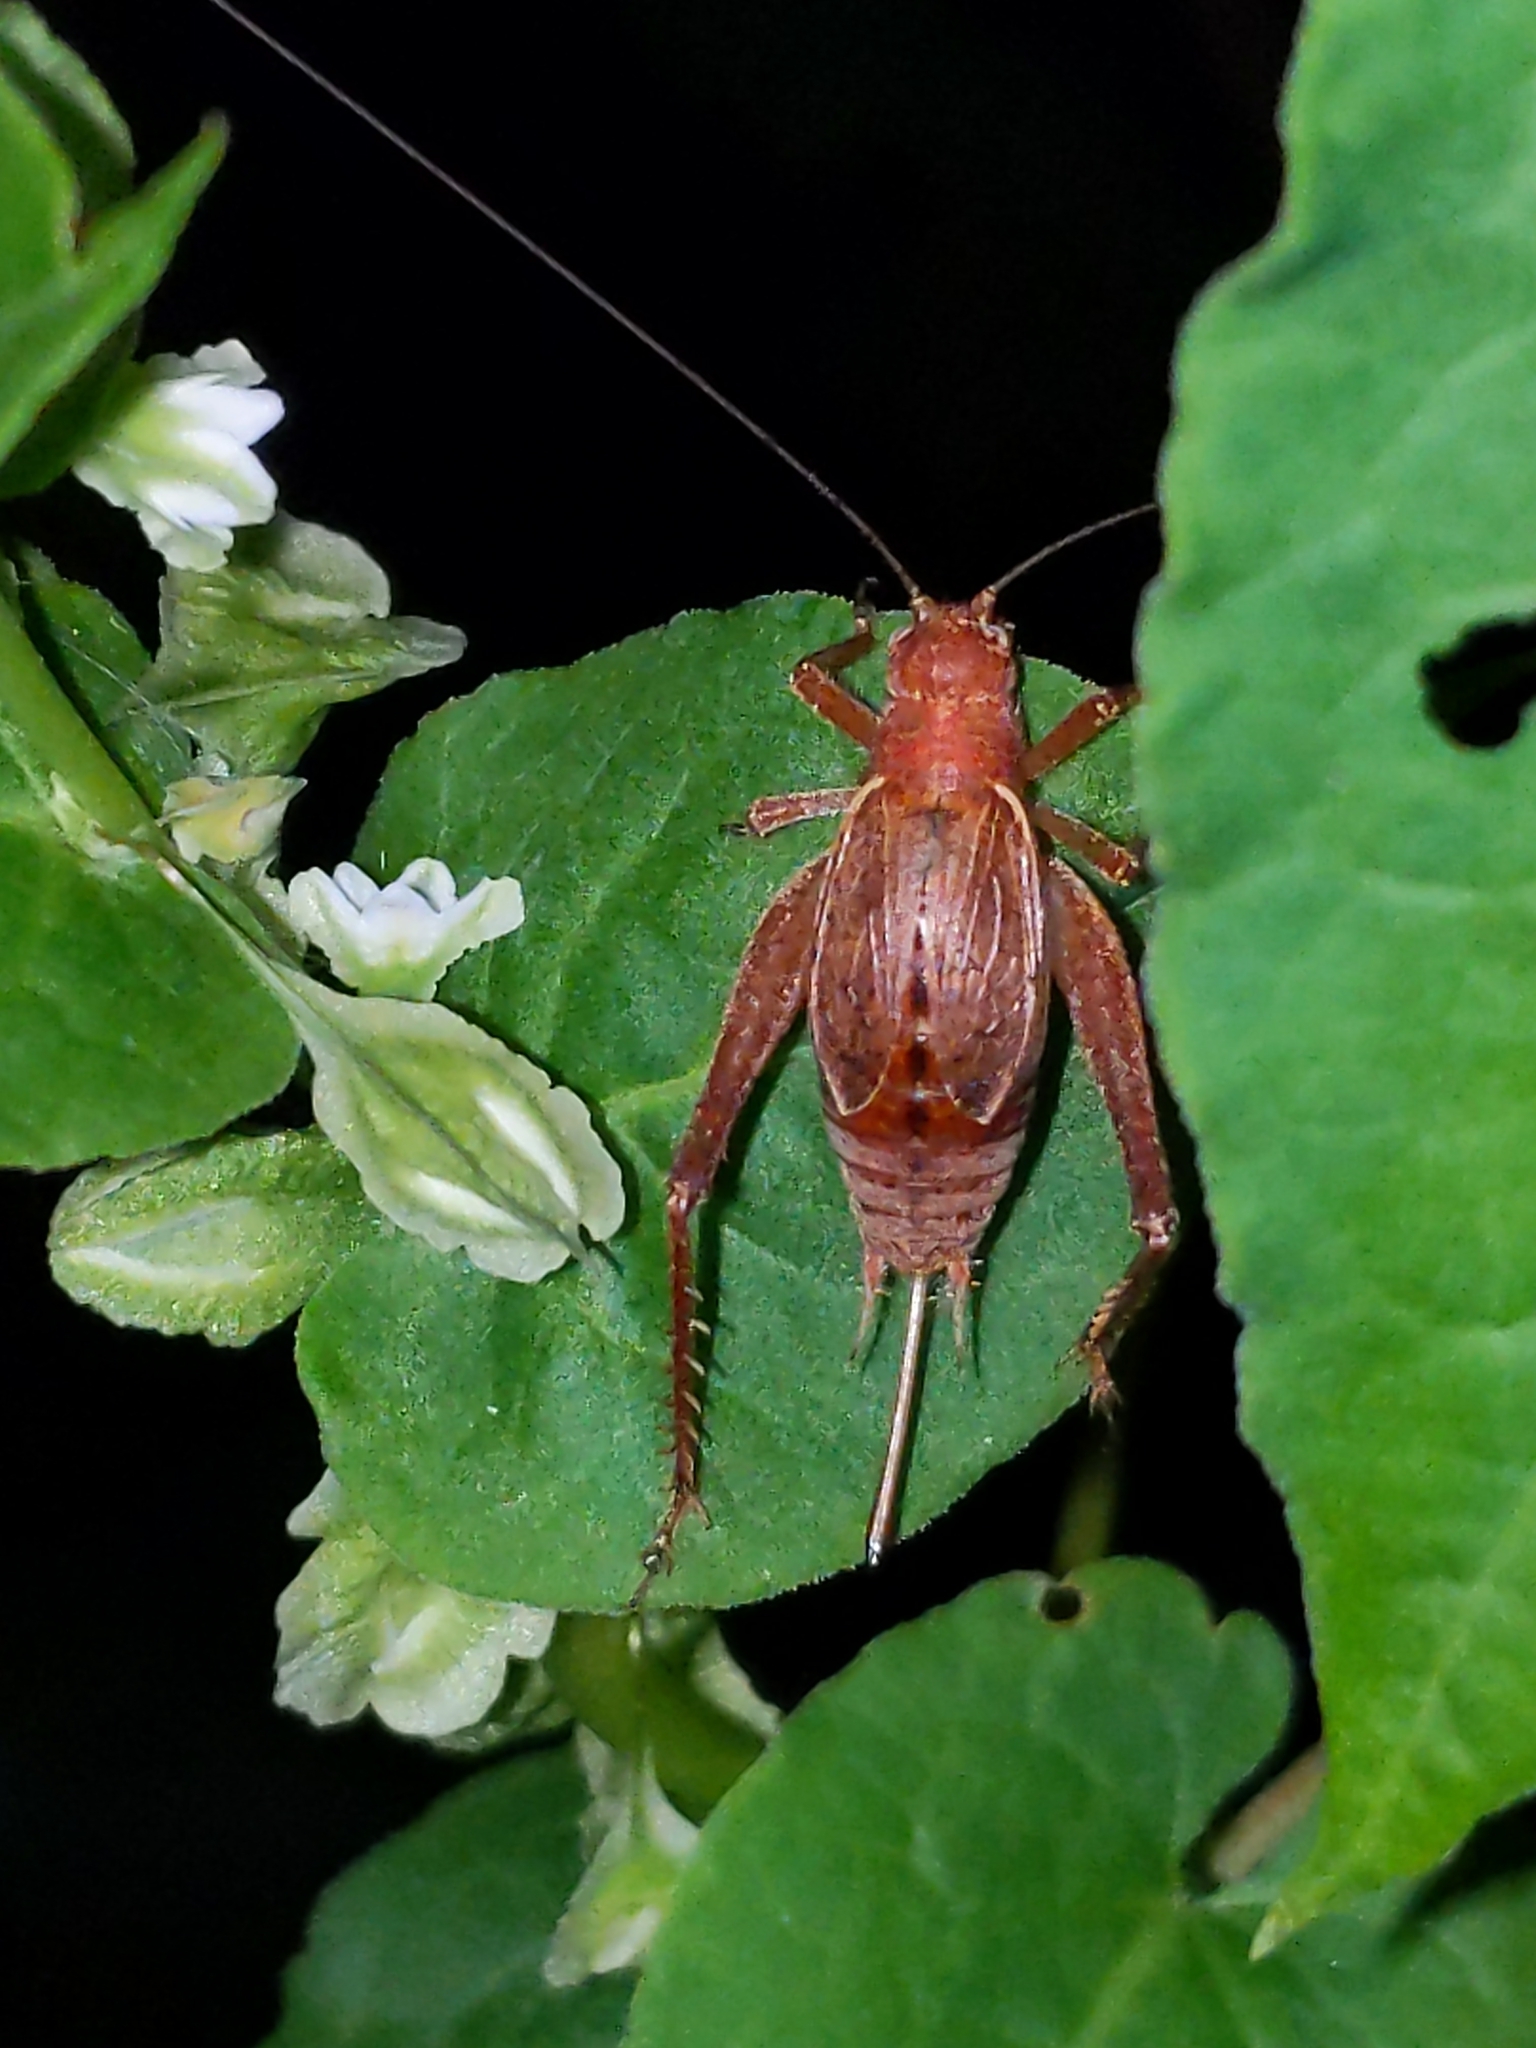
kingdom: Animalia
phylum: Arthropoda
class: Insecta
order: Orthoptera
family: Gryllidae
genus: Hapithus
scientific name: Hapithus agitator
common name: Restless bush cricket
